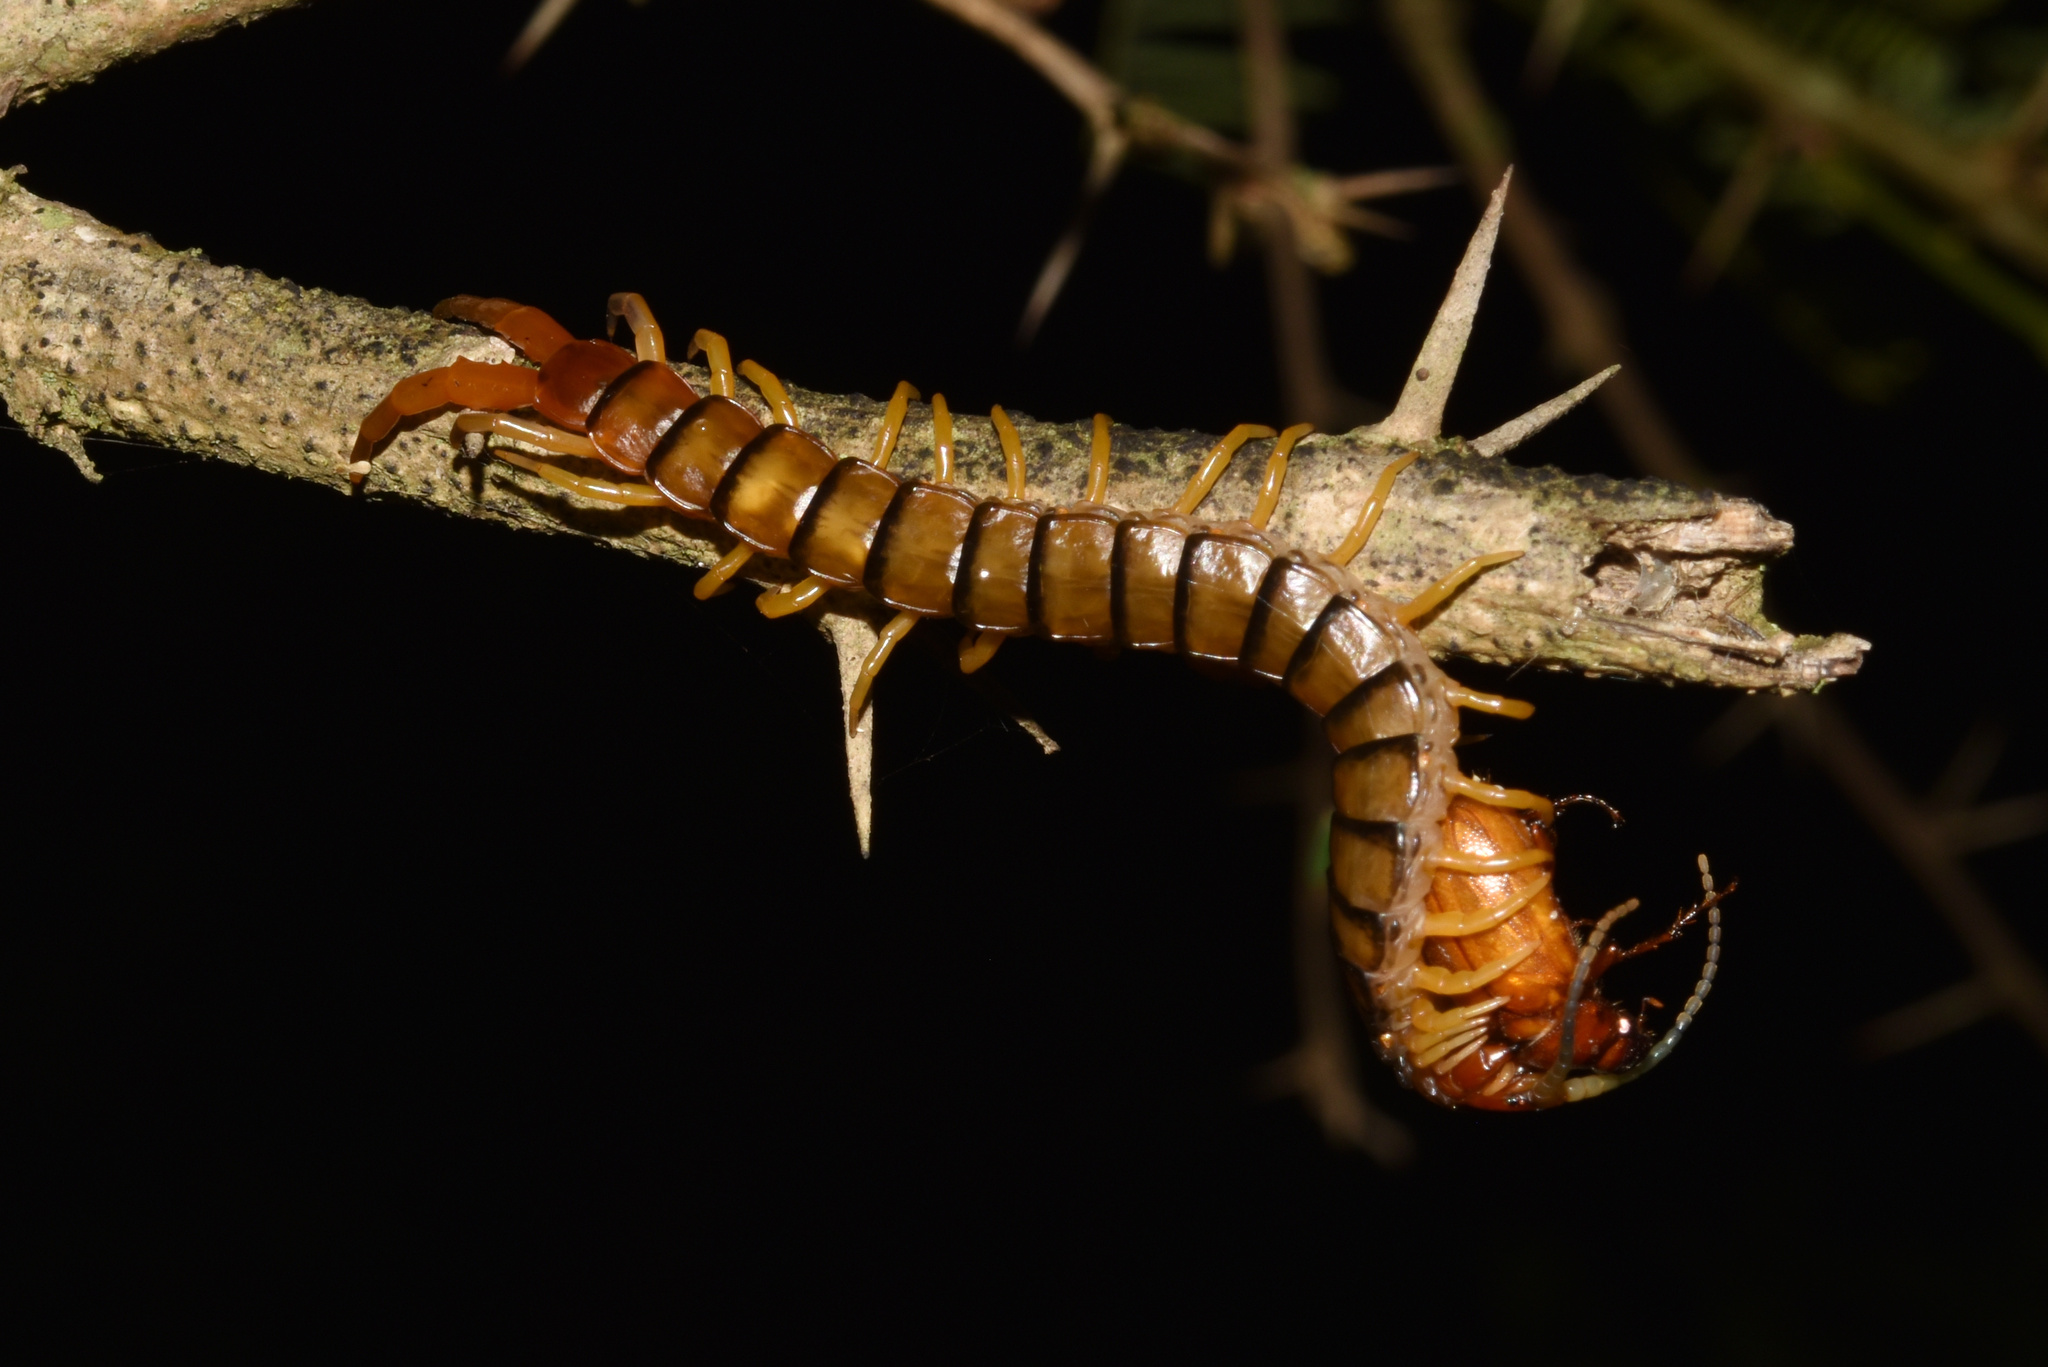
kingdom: Animalia
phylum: Arthropoda
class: Chilopoda
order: Scolopendromorpha
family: Scolopendridae
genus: Scolopendra
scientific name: Scolopendra morsitans
